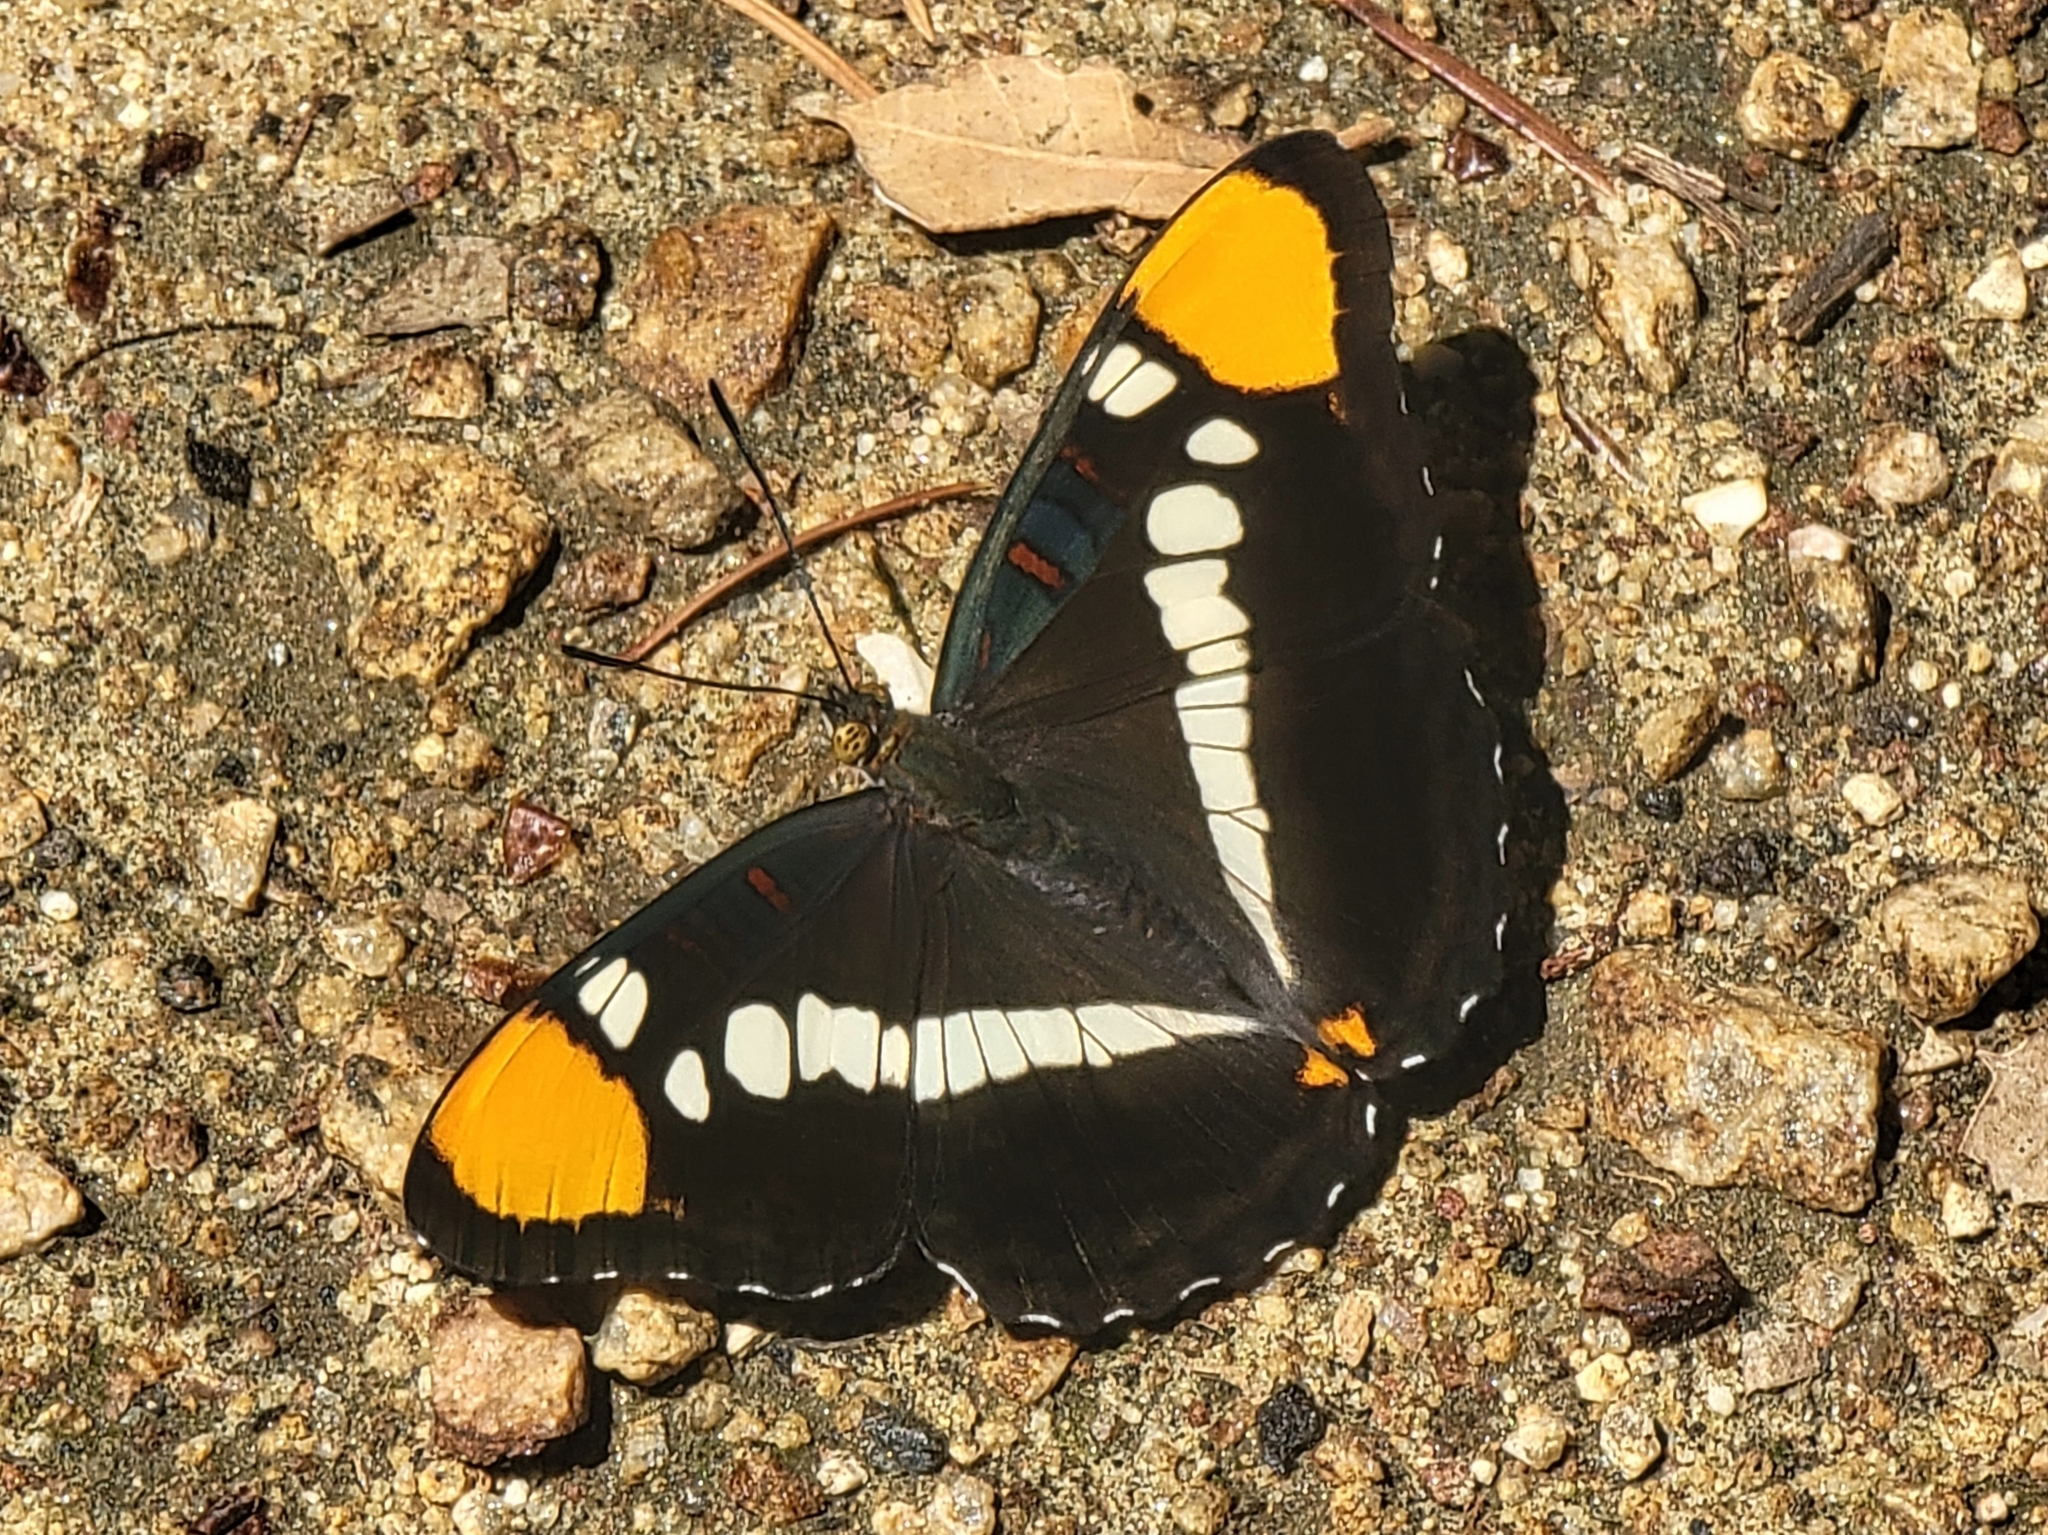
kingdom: Animalia
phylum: Arthropoda
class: Insecta
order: Lepidoptera
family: Nymphalidae
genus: Limenitis
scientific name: Limenitis bredowii
